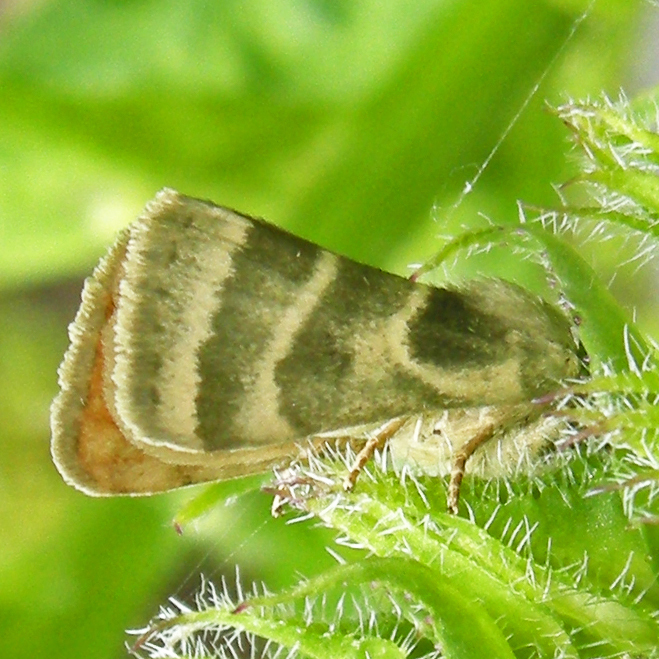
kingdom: Animalia
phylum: Arthropoda
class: Insecta
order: Lepidoptera
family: Noctuidae
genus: Schinia
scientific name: Schinia trifascia
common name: Three-lined flower moth
